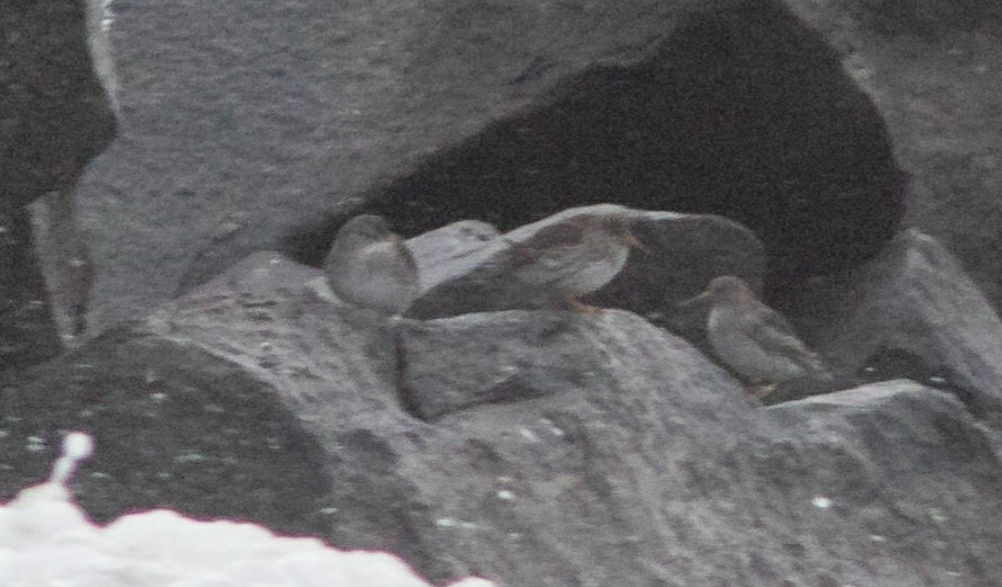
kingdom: Animalia
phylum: Chordata
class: Aves
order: Charadriiformes
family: Scolopacidae
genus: Calidris
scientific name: Calidris maritima
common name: Purple sandpiper
